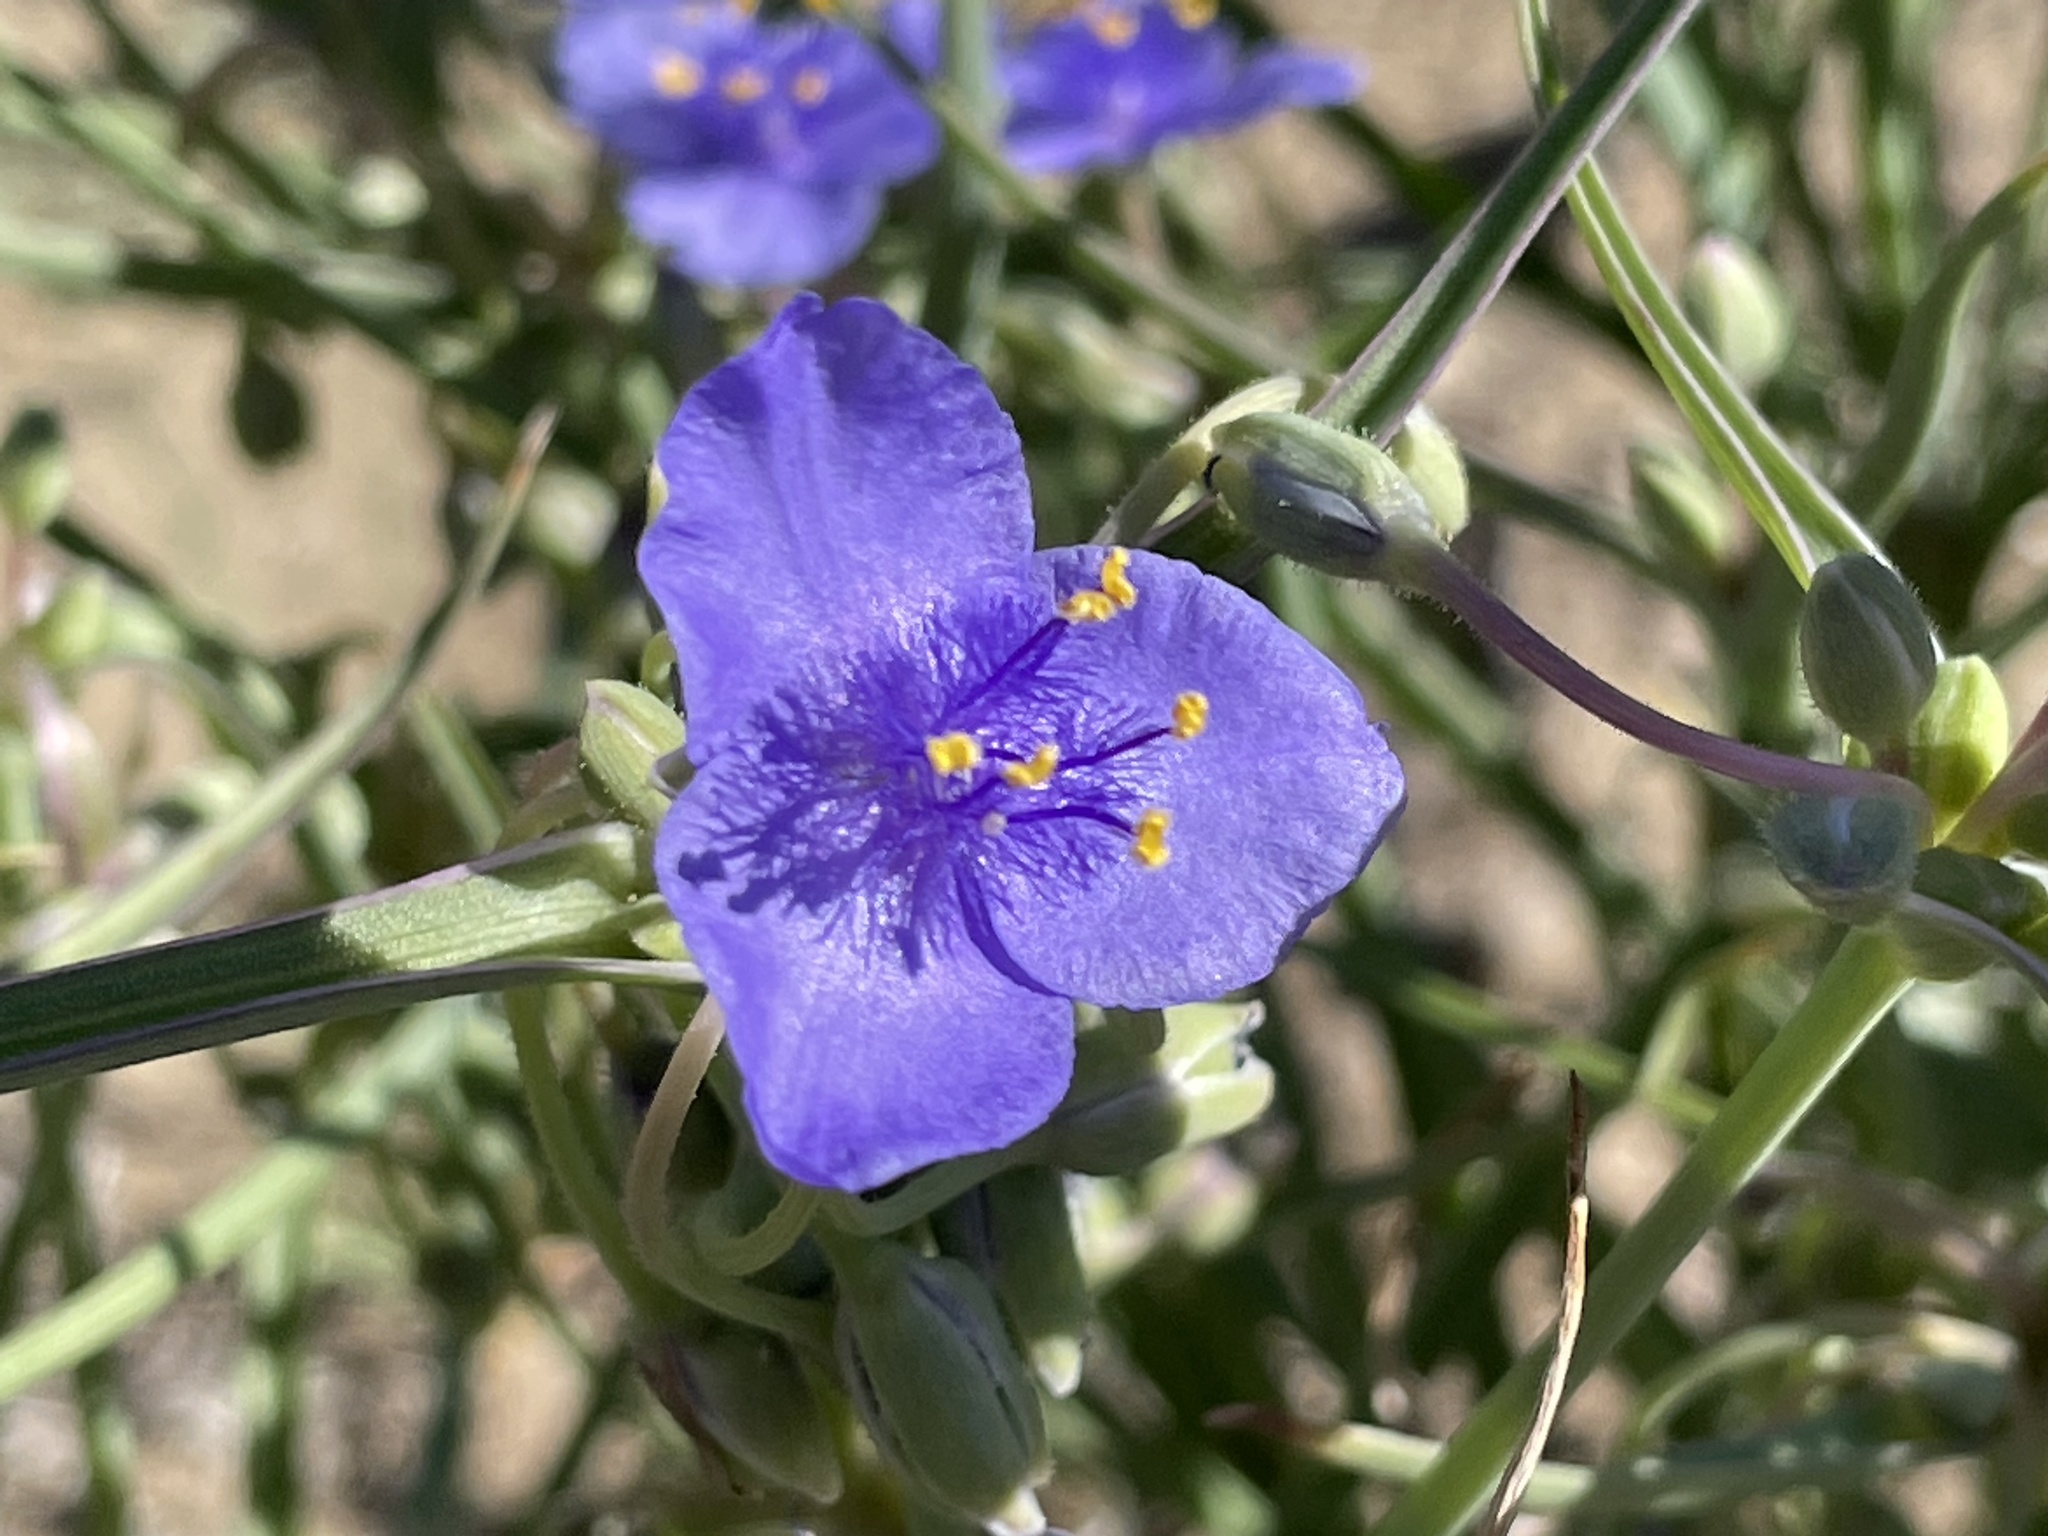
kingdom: Plantae
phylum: Tracheophyta
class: Liliopsida
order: Commelinales
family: Commelinaceae
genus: Tradescantia
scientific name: Tradescantia occidentalis
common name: Prairie spiderwort
